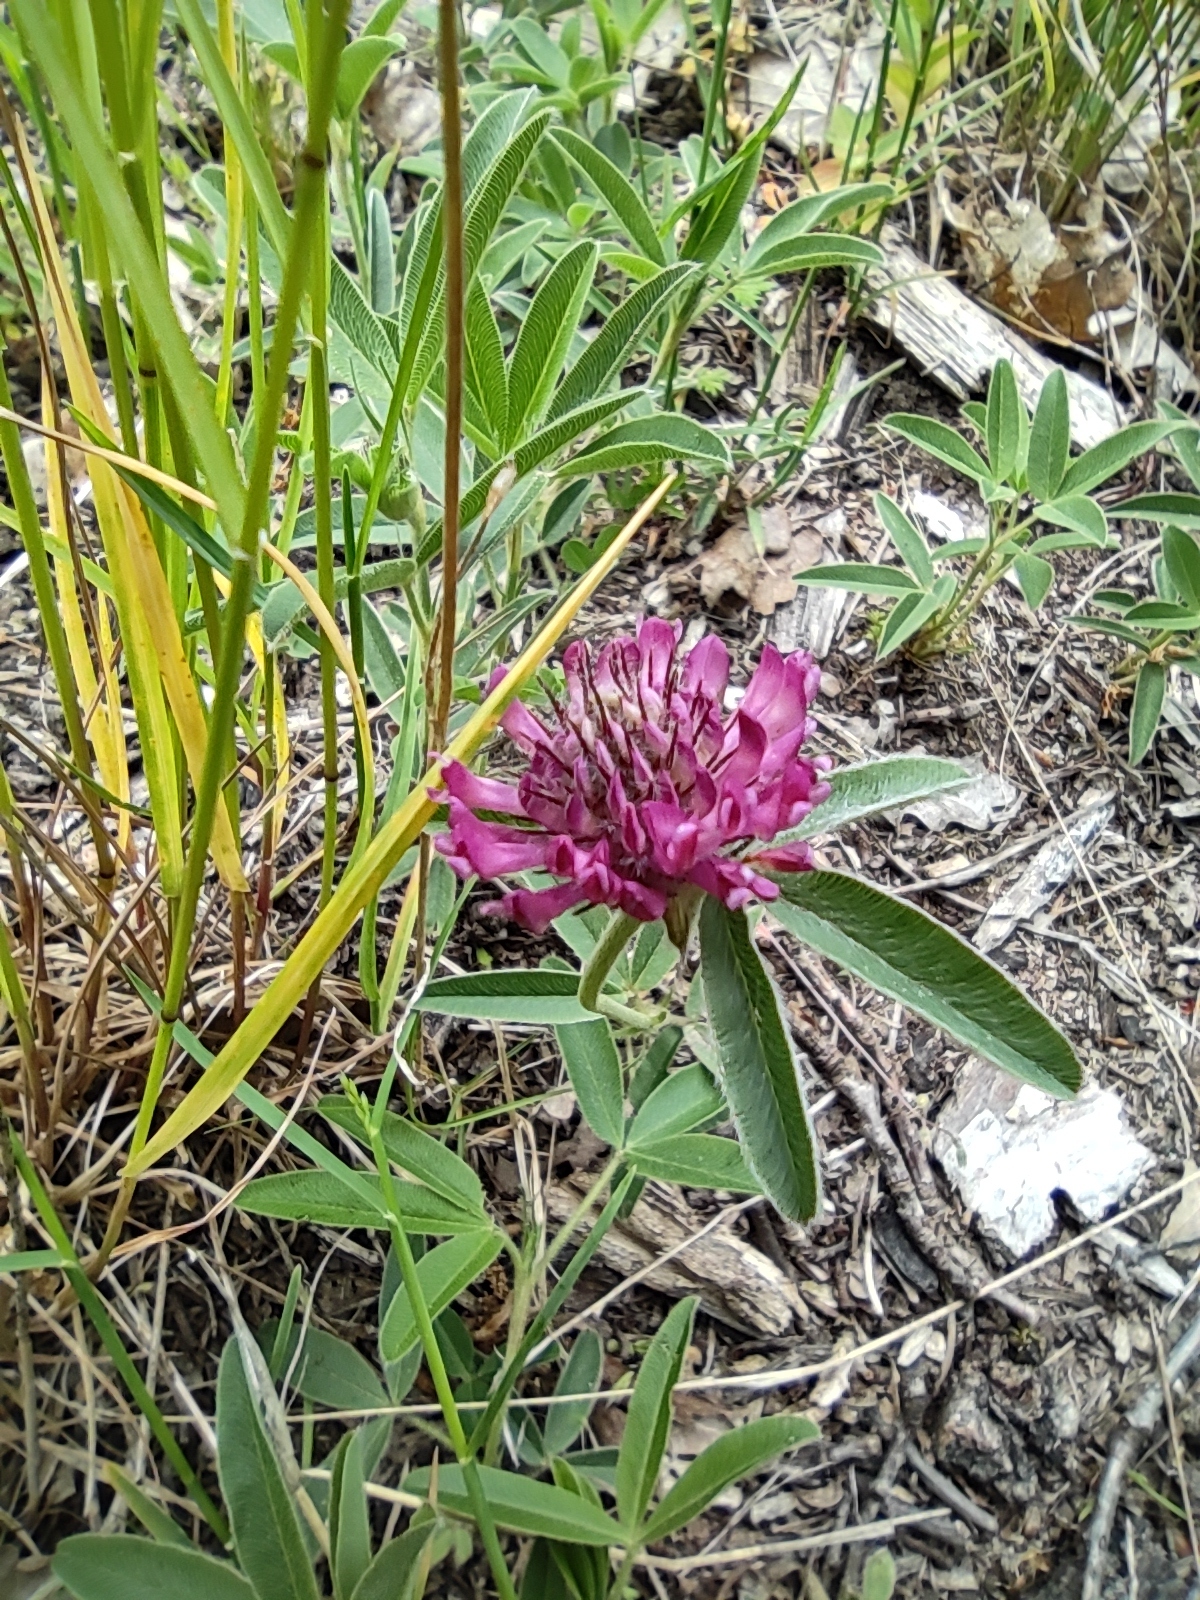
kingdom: Plantae
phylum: Tracheophyta
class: Magnoliopsida
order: Fabales
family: Fabaceae
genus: Trifolium
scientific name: Trifolium alpestre
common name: Owl-head clover
